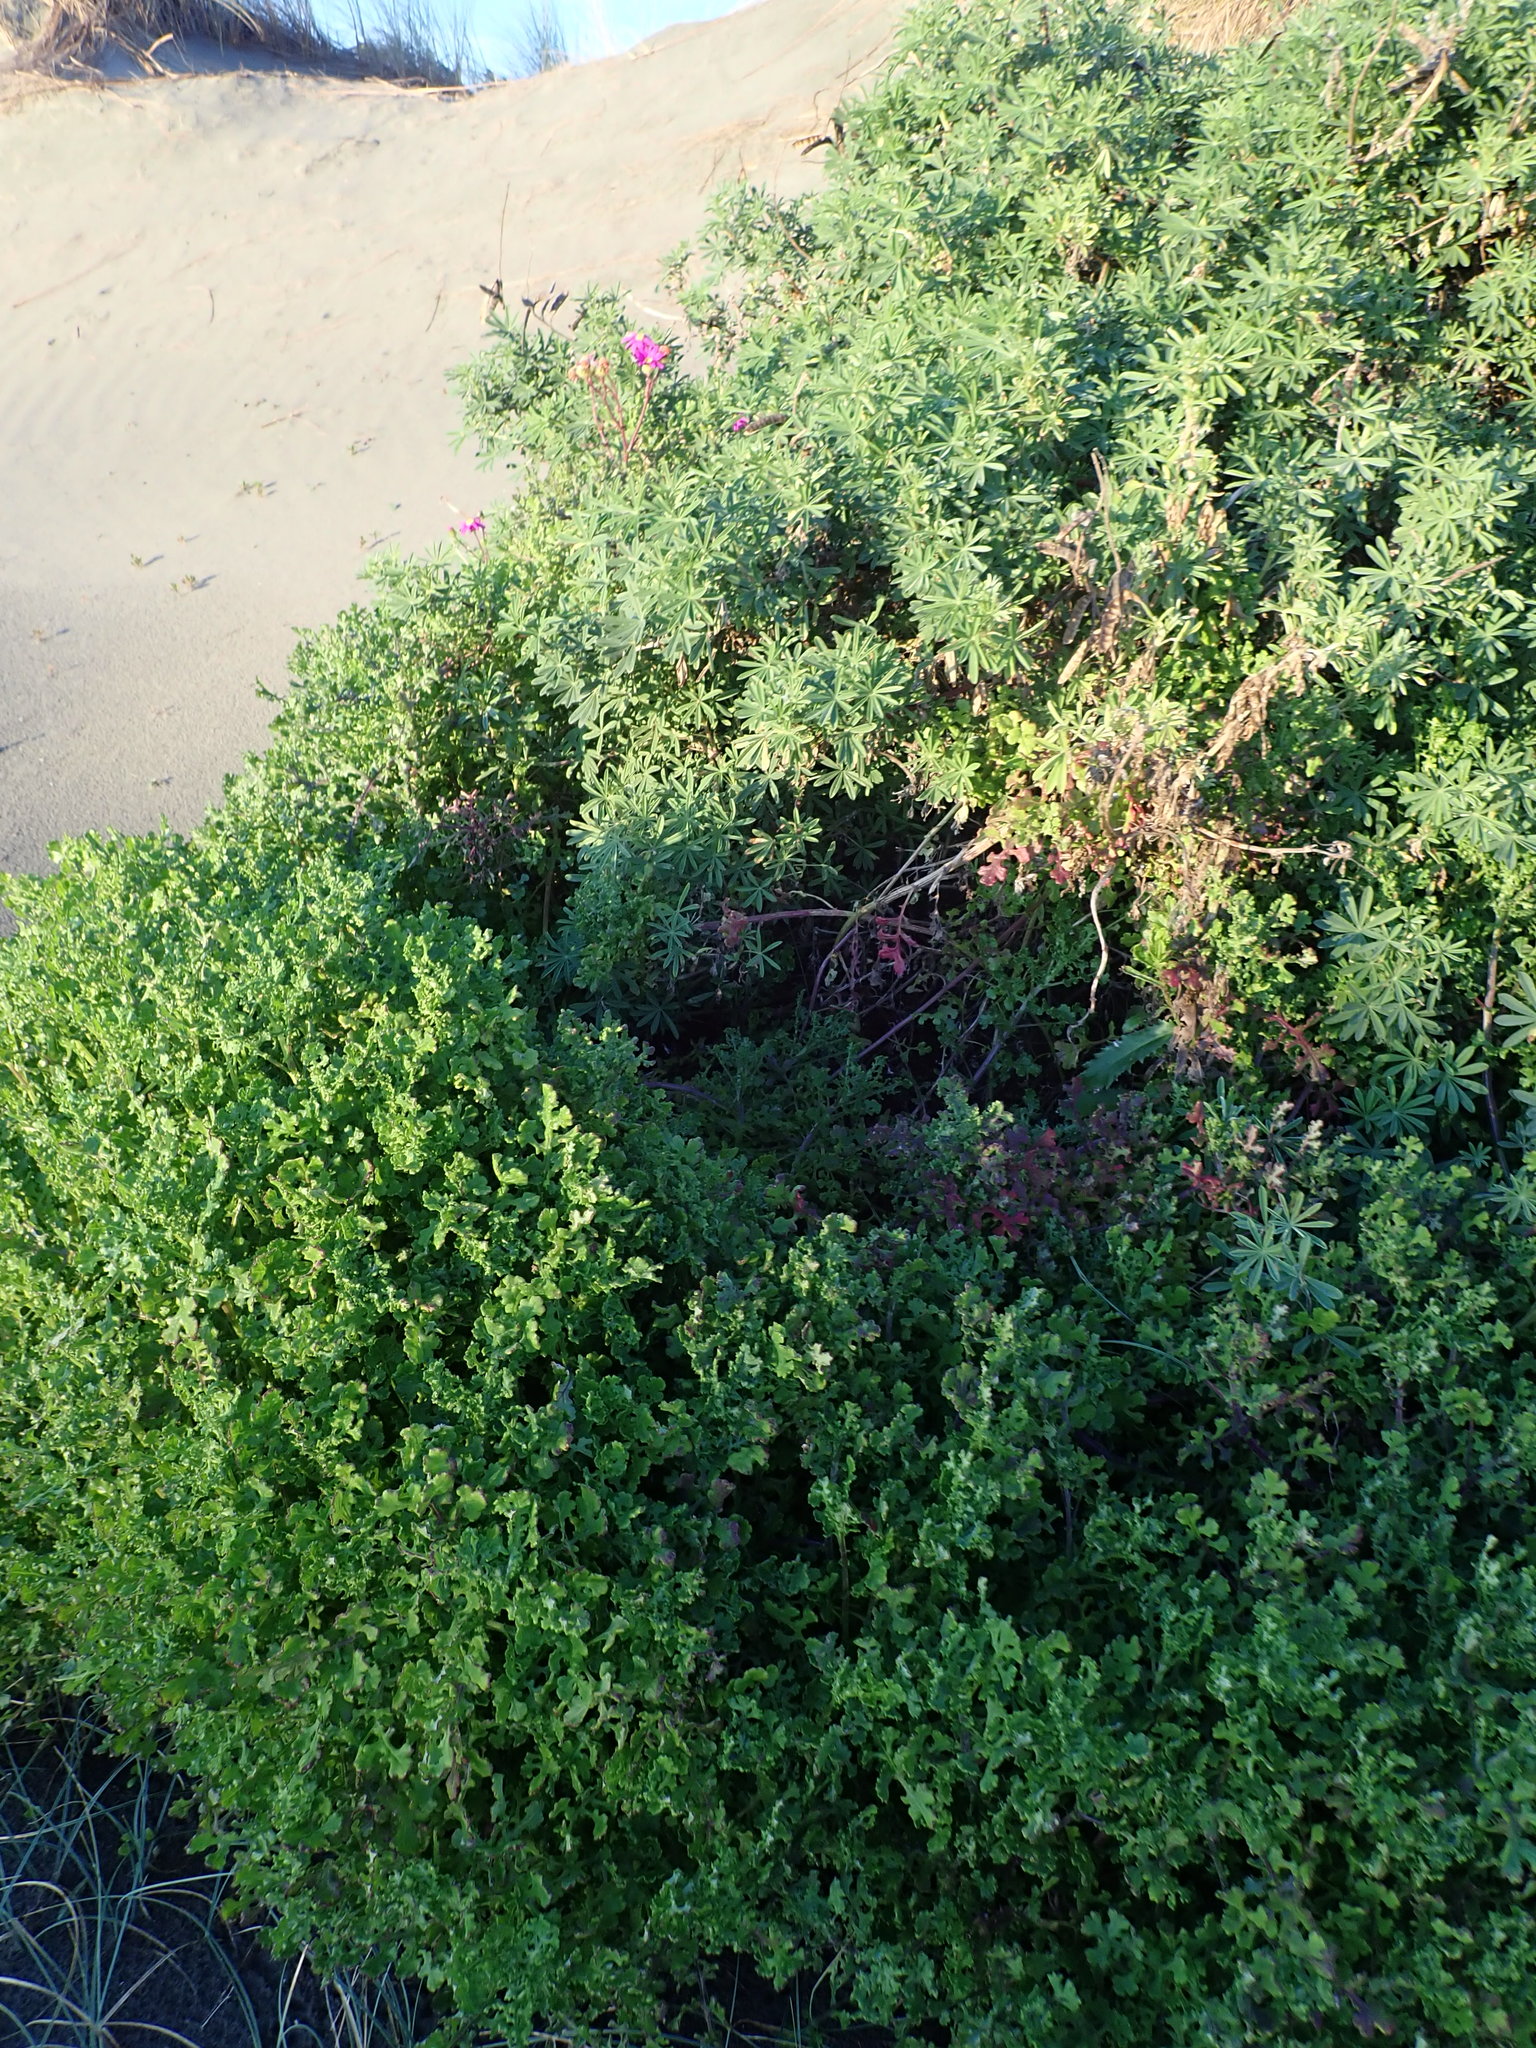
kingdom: Plantae
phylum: Tracheophyta
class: Magnoliopsida
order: Asterales
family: Asteraceae
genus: Senecio
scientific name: Senecio elegans
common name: Purple groundsel
